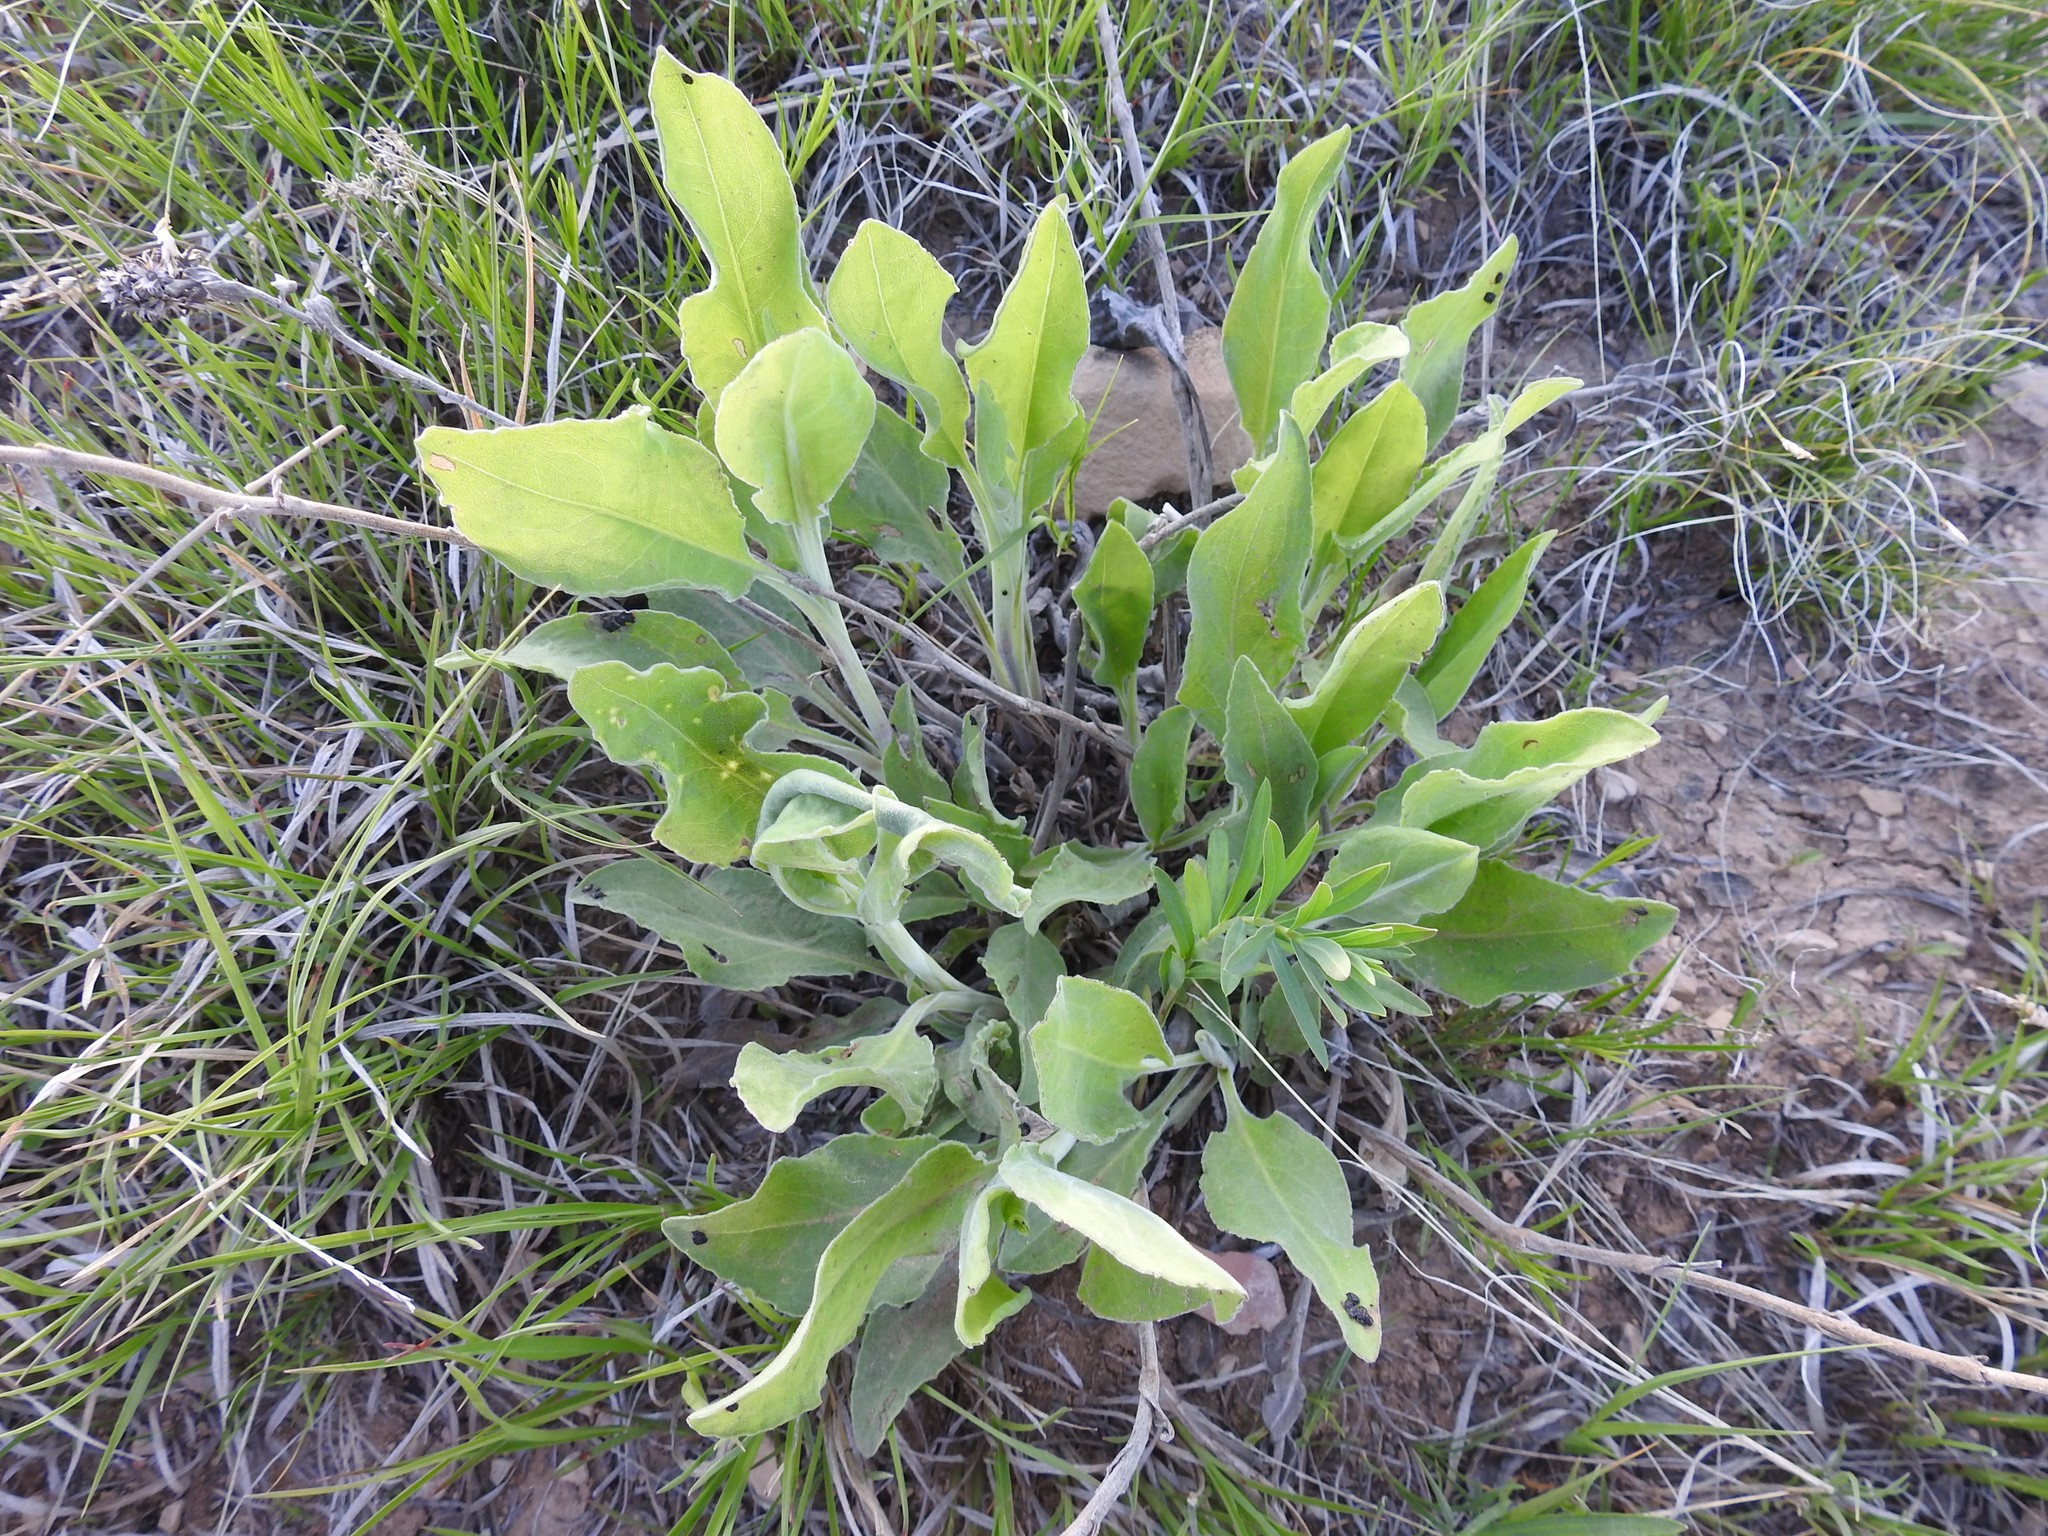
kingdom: Plantae
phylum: Tracheophyta
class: Magnoliopsida
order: Asterales
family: Asteraceae
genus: Solidago
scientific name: Solidago rigida
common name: Rigid goldenrod
